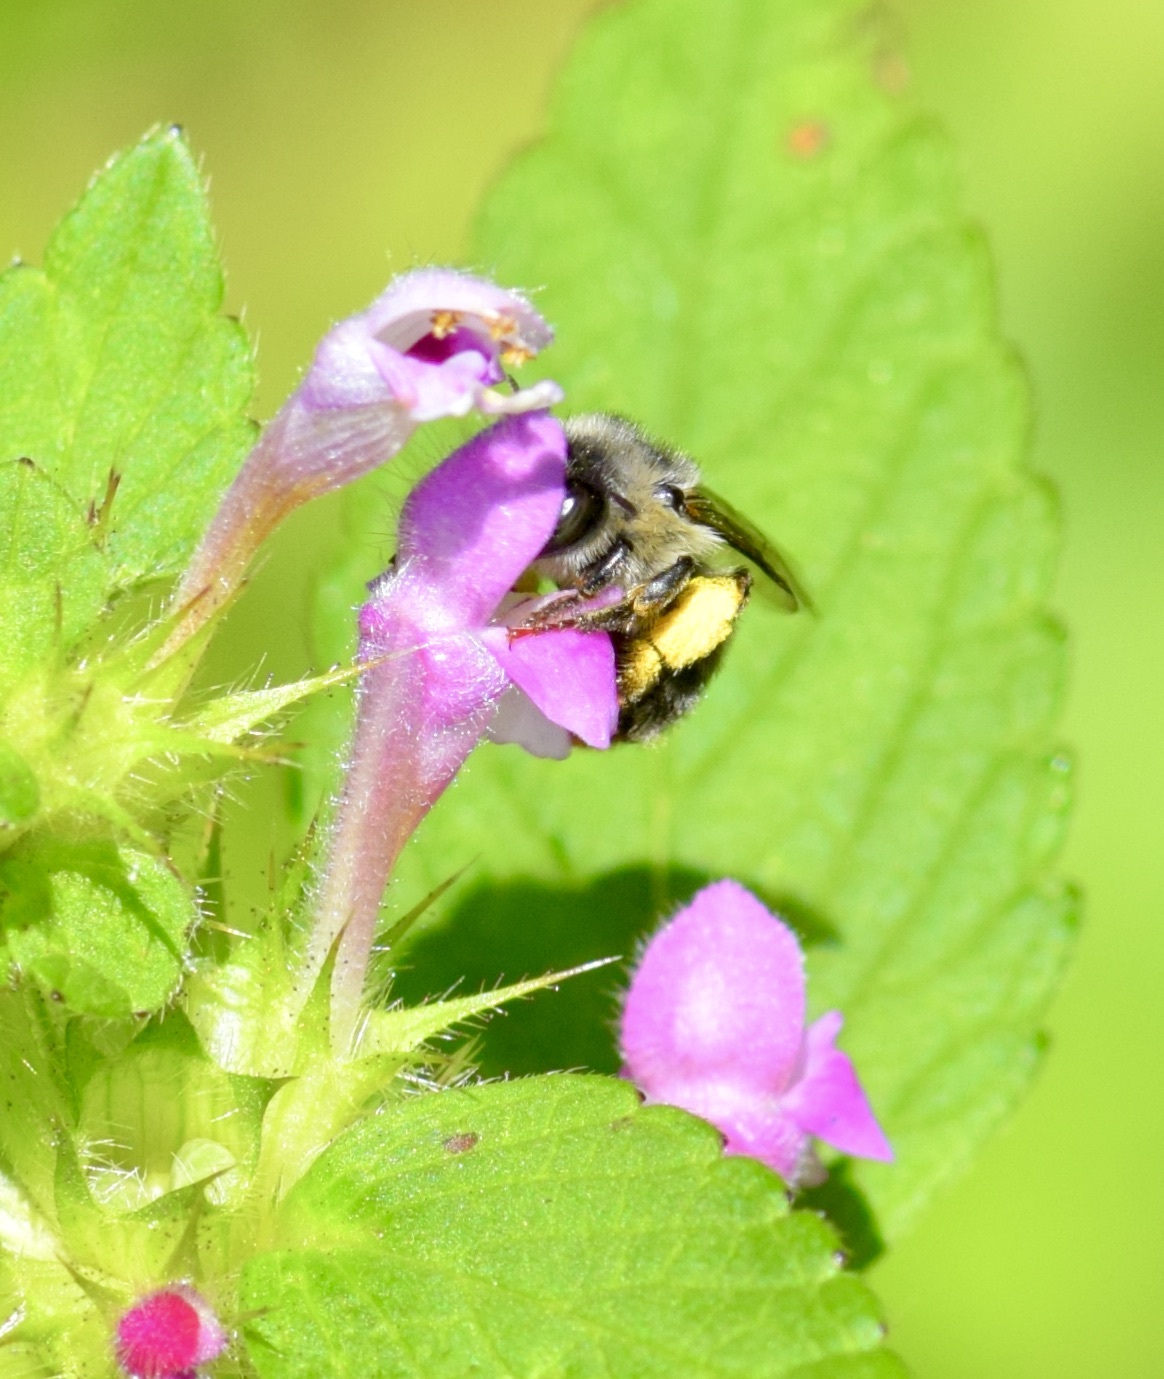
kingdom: Animalia
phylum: Arthropoda
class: Insecta
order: Hymenoptera
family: Apidae
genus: Anthophora
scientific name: Anthophora terminalis
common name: Orange-tipped wood-digger bee
